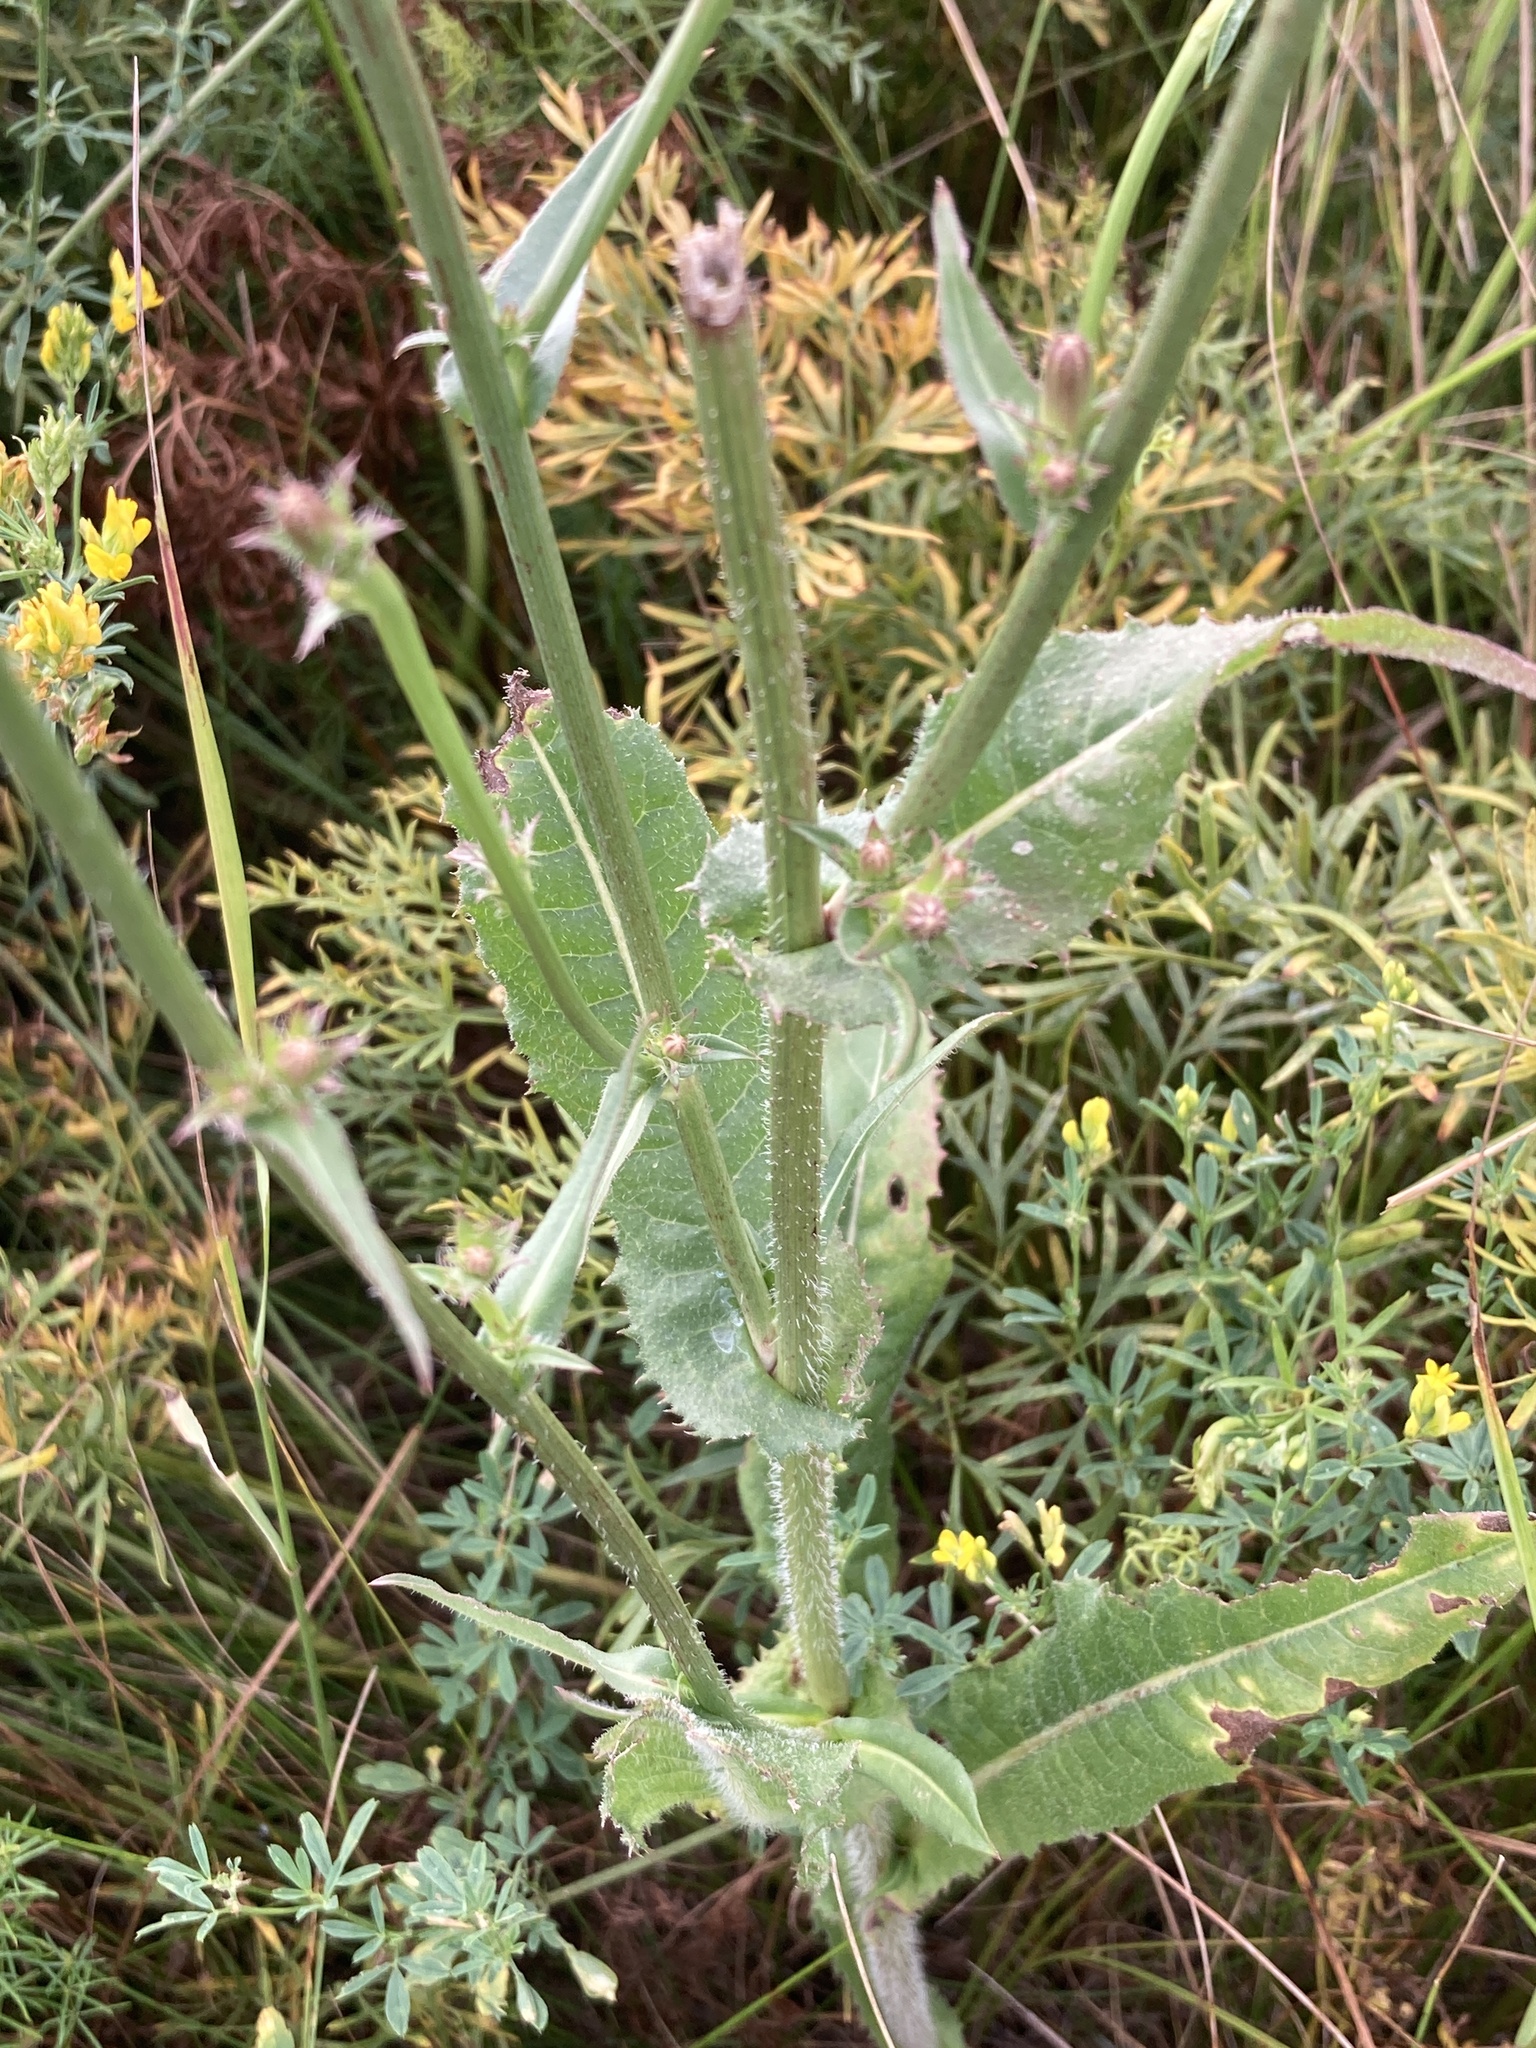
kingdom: Plantae
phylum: Tracheophyta
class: Magnoliopsida
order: Asterales
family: Asteraceae
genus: Cichorium
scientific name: Cichorium intybus
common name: Chicory
